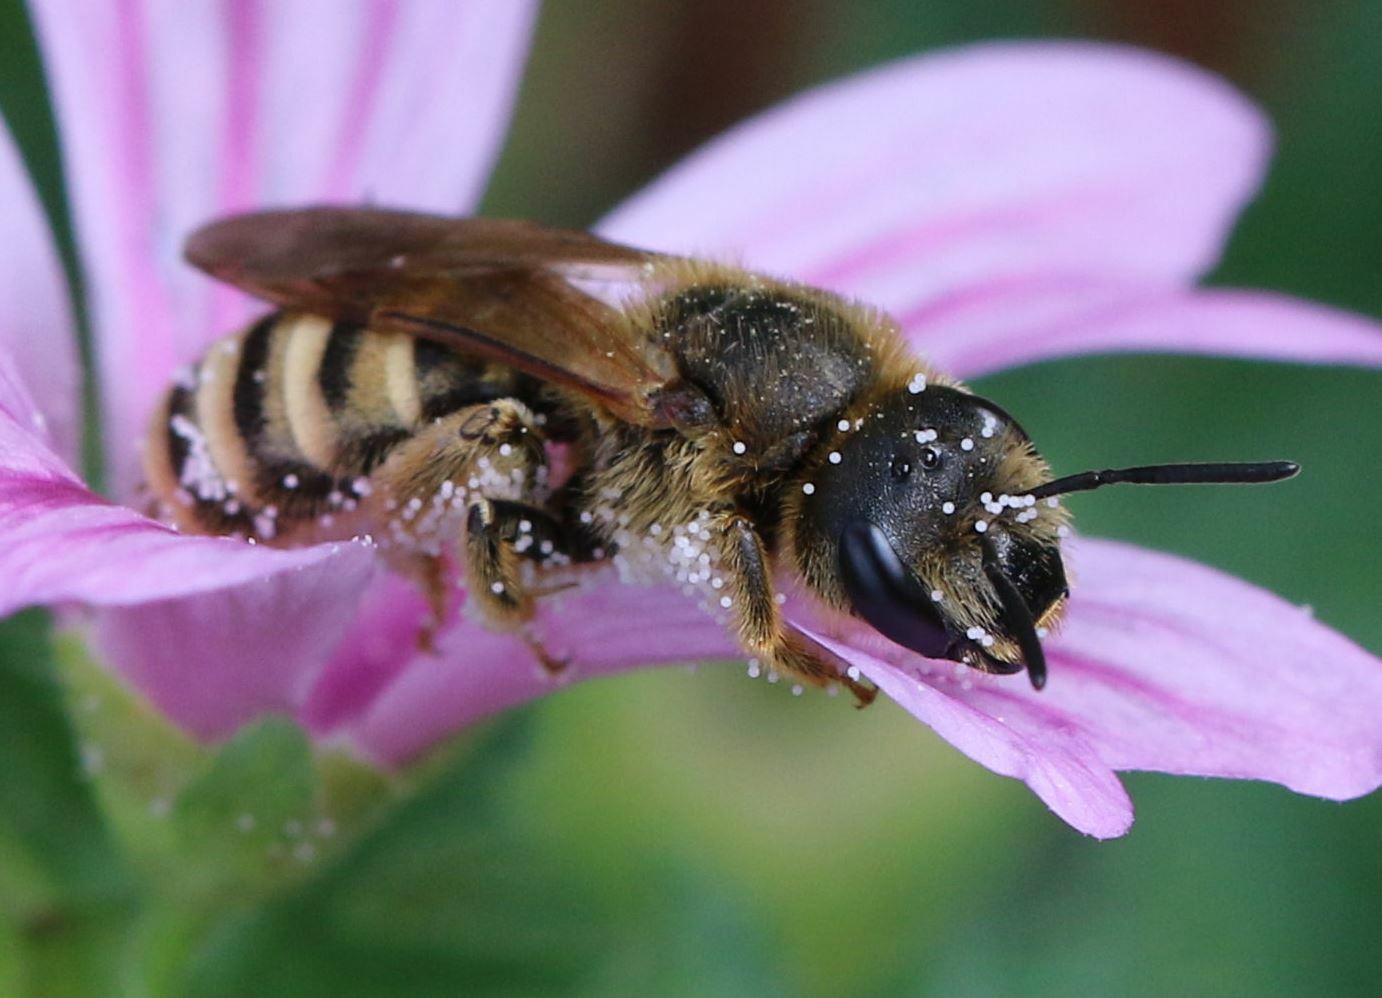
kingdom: Animalia
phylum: Arthropoda
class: Insecta
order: Hymenoptera
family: Halictidae
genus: Halictus
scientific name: Halictus scabiosae
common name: Great banded furrow bee
